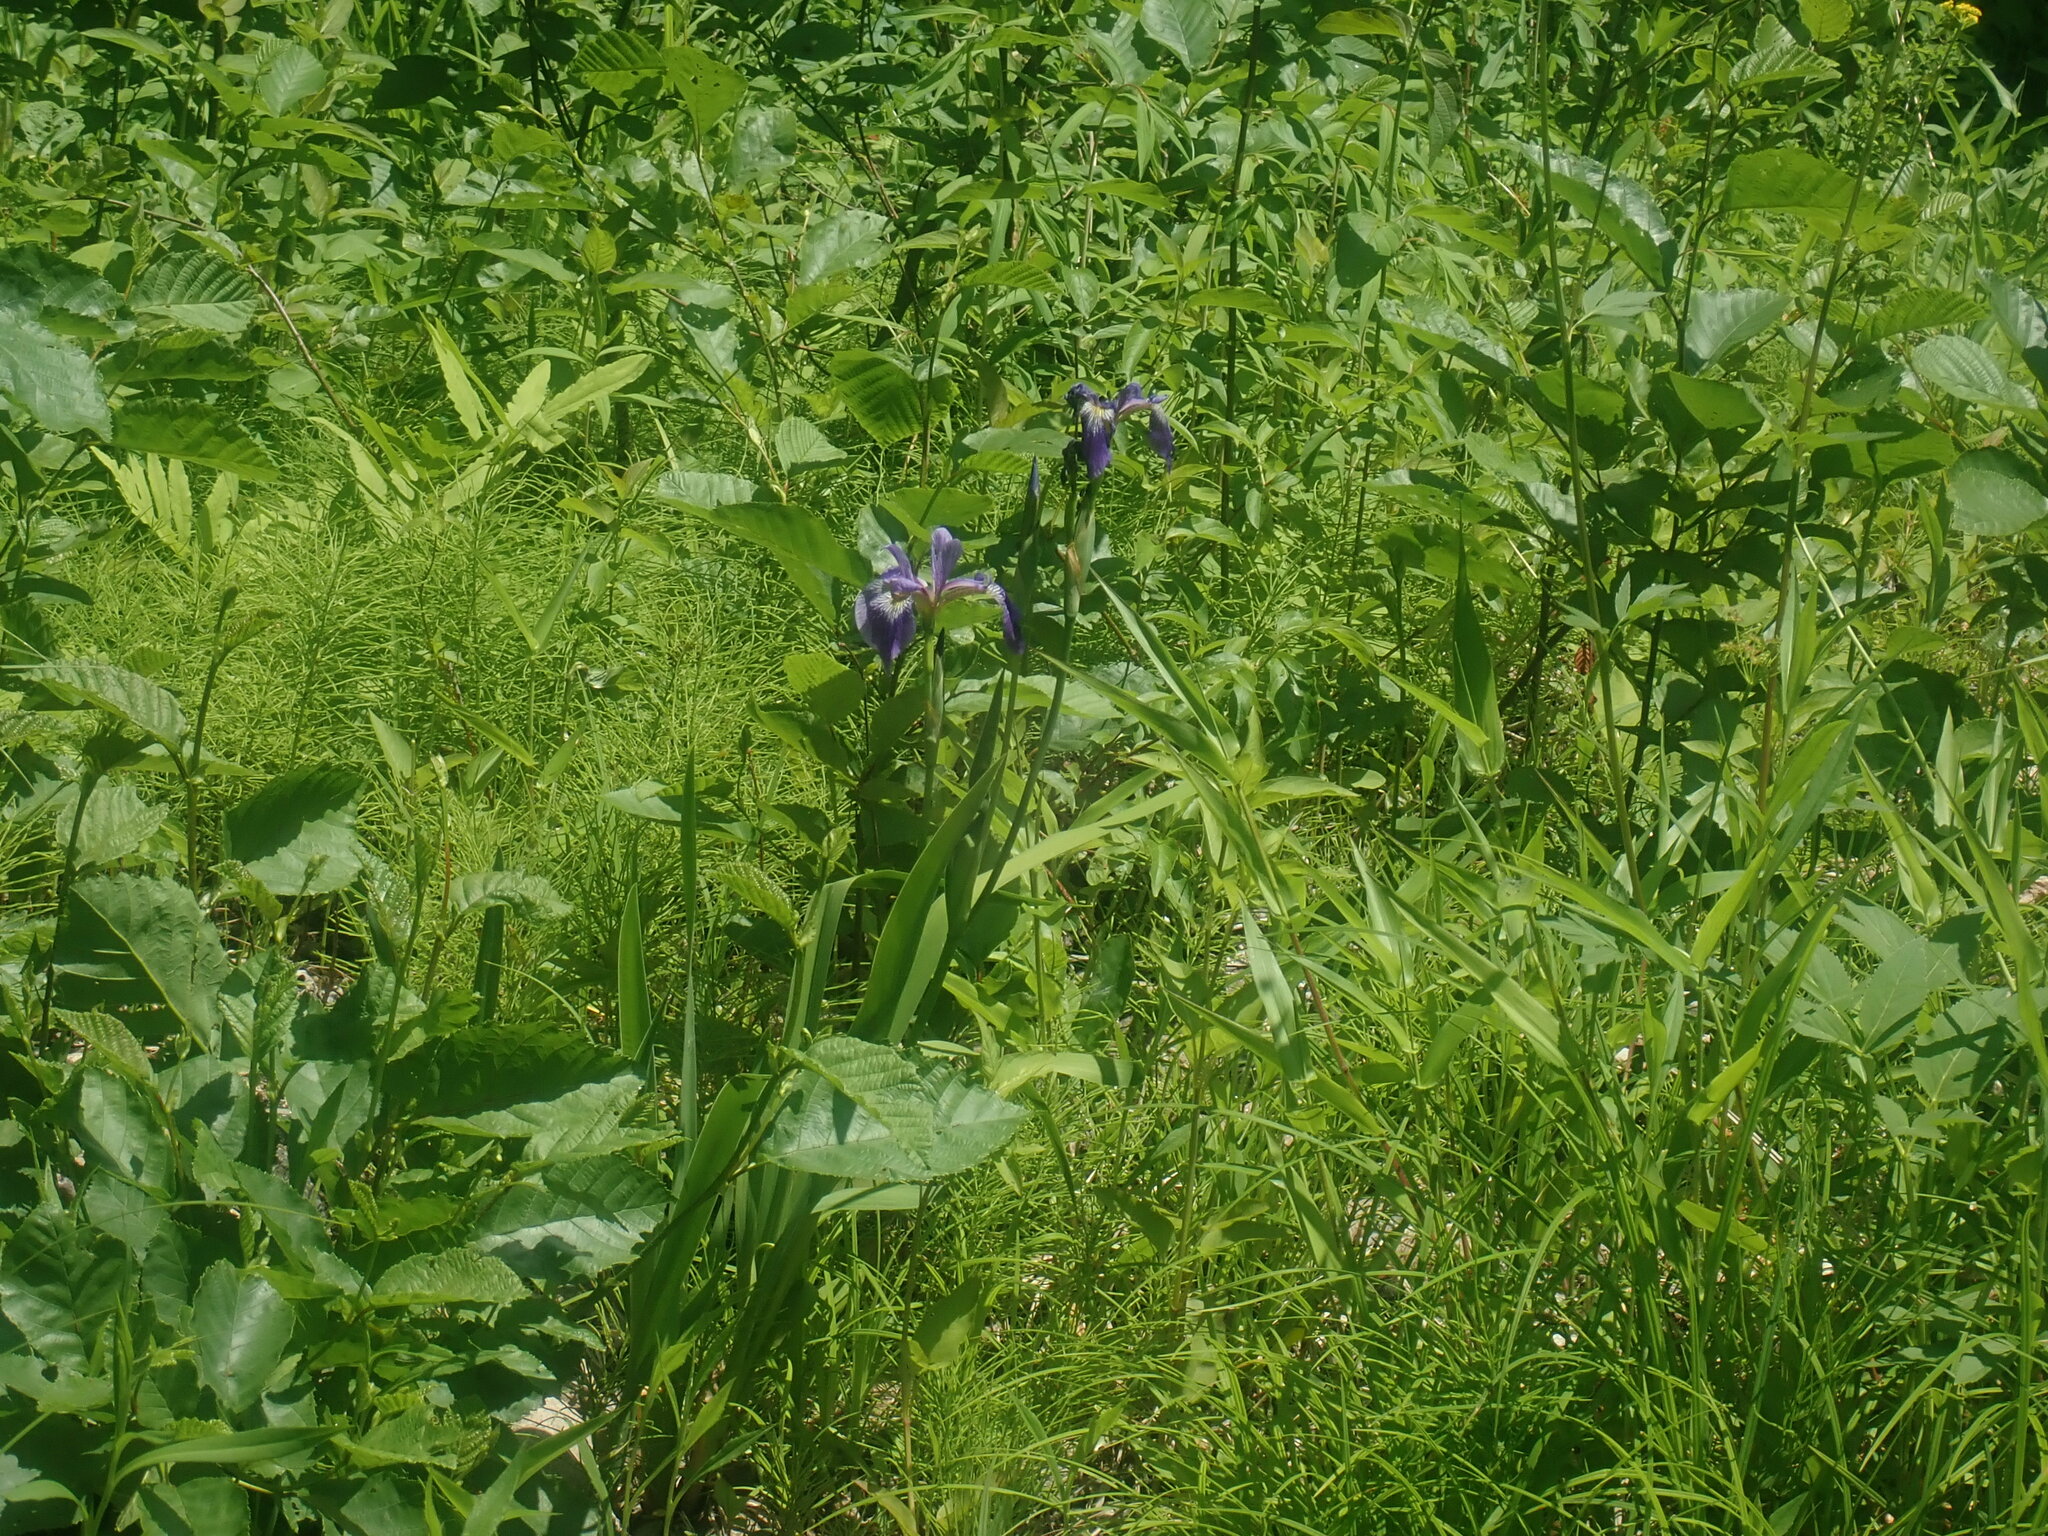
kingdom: Plantae
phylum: Tracheophyta
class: Liliopsida
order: Asparagales
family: Iridaceae
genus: Iris
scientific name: Iris versicolor
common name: Purple iris
